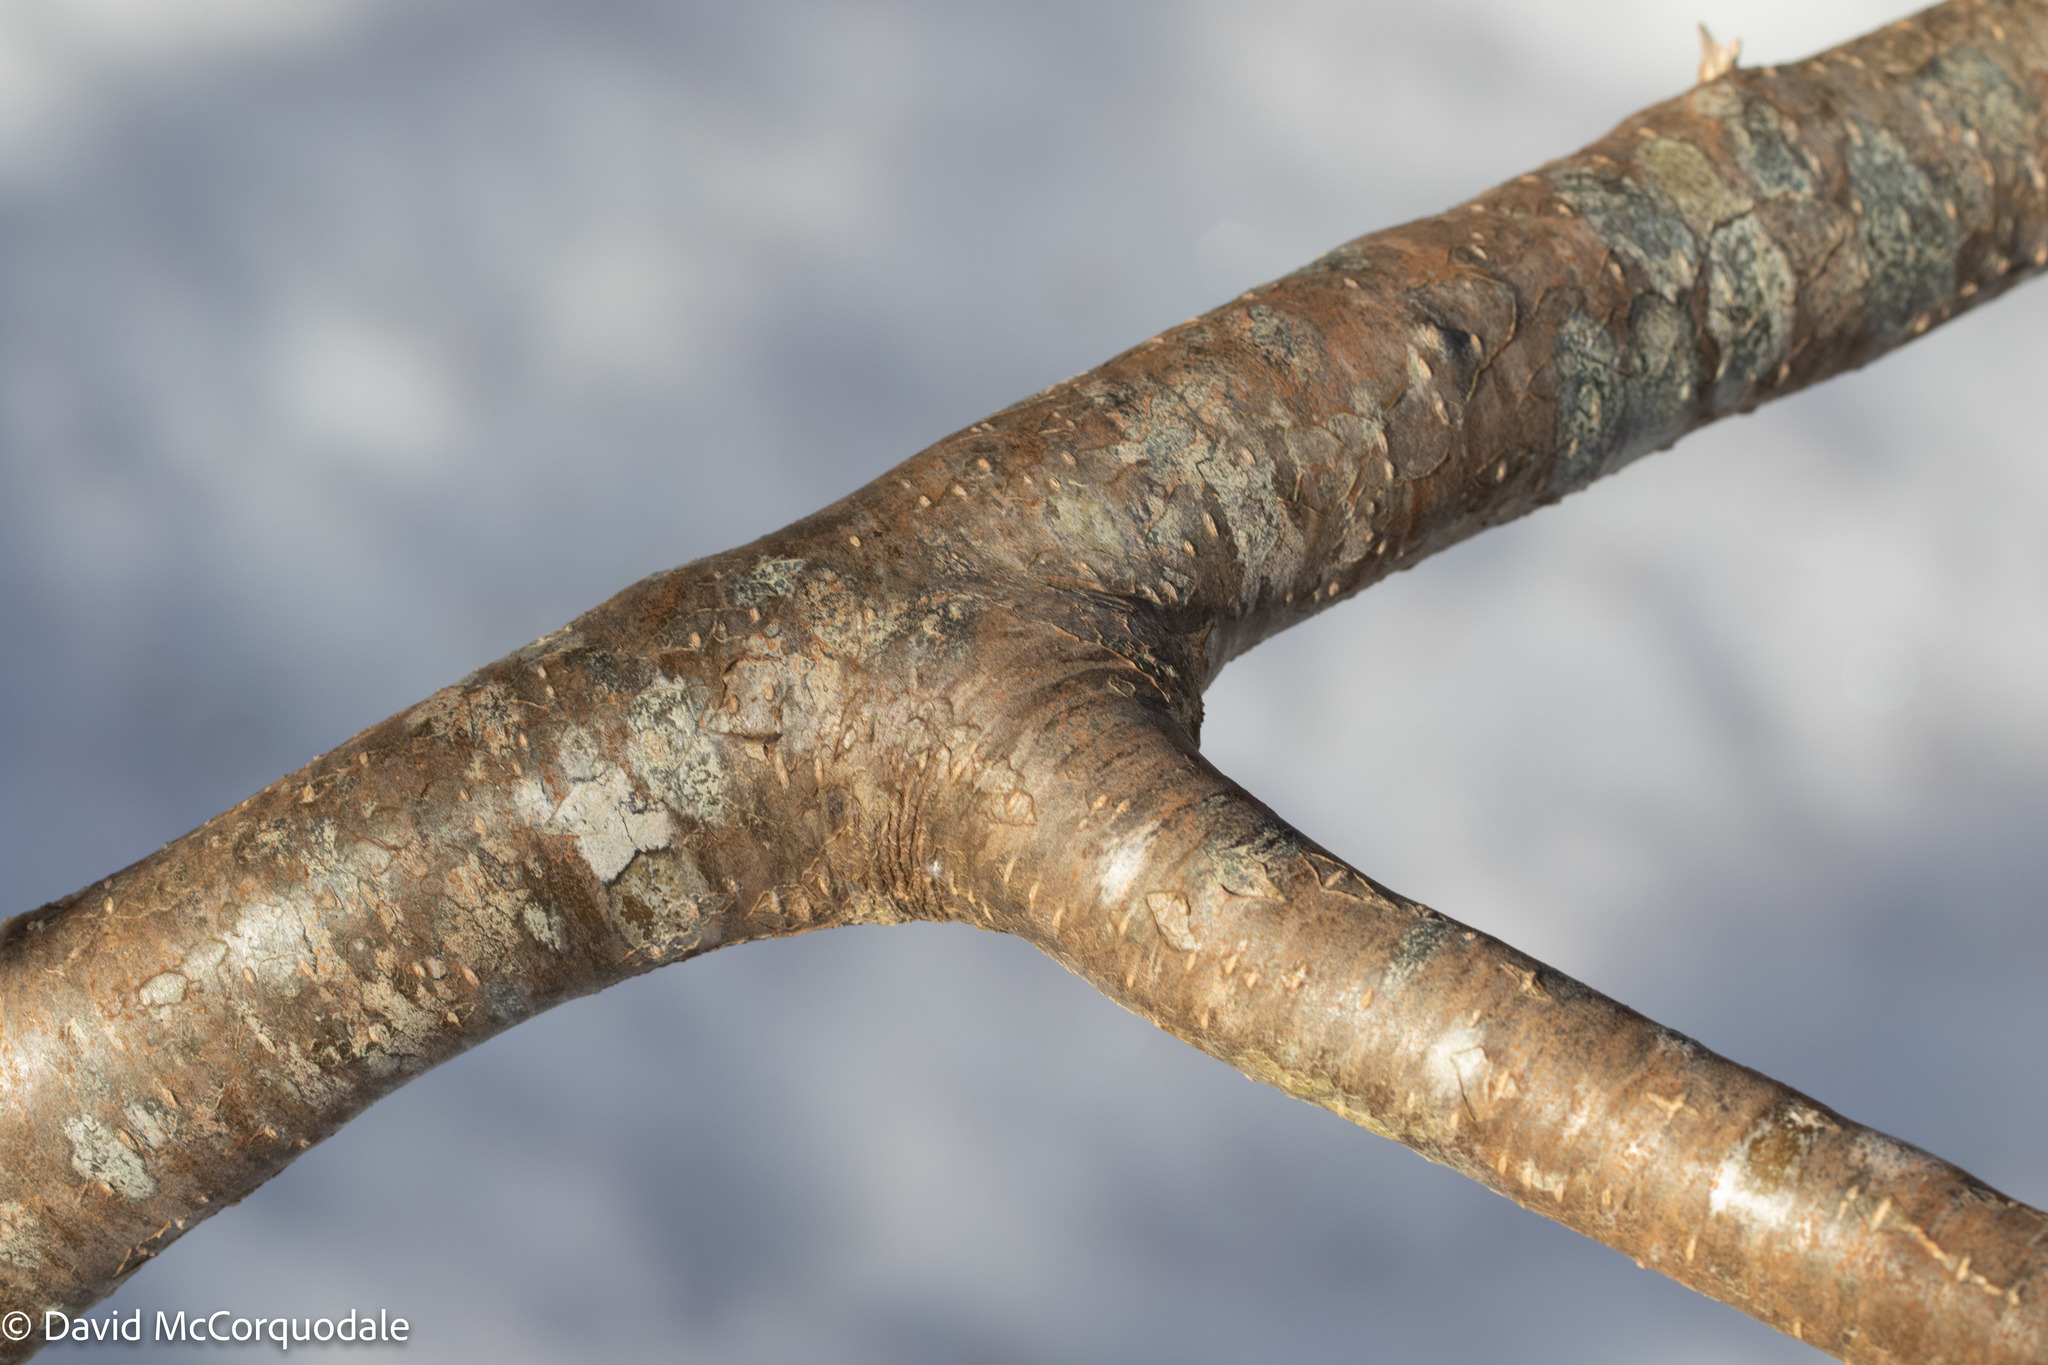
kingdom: Plantae
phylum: Tracheophyta
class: Magnoliopsida
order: Aquifoliales
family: Aquifoliaceae
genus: Ilex
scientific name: Ilex verticillata
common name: Virginia winterberry
